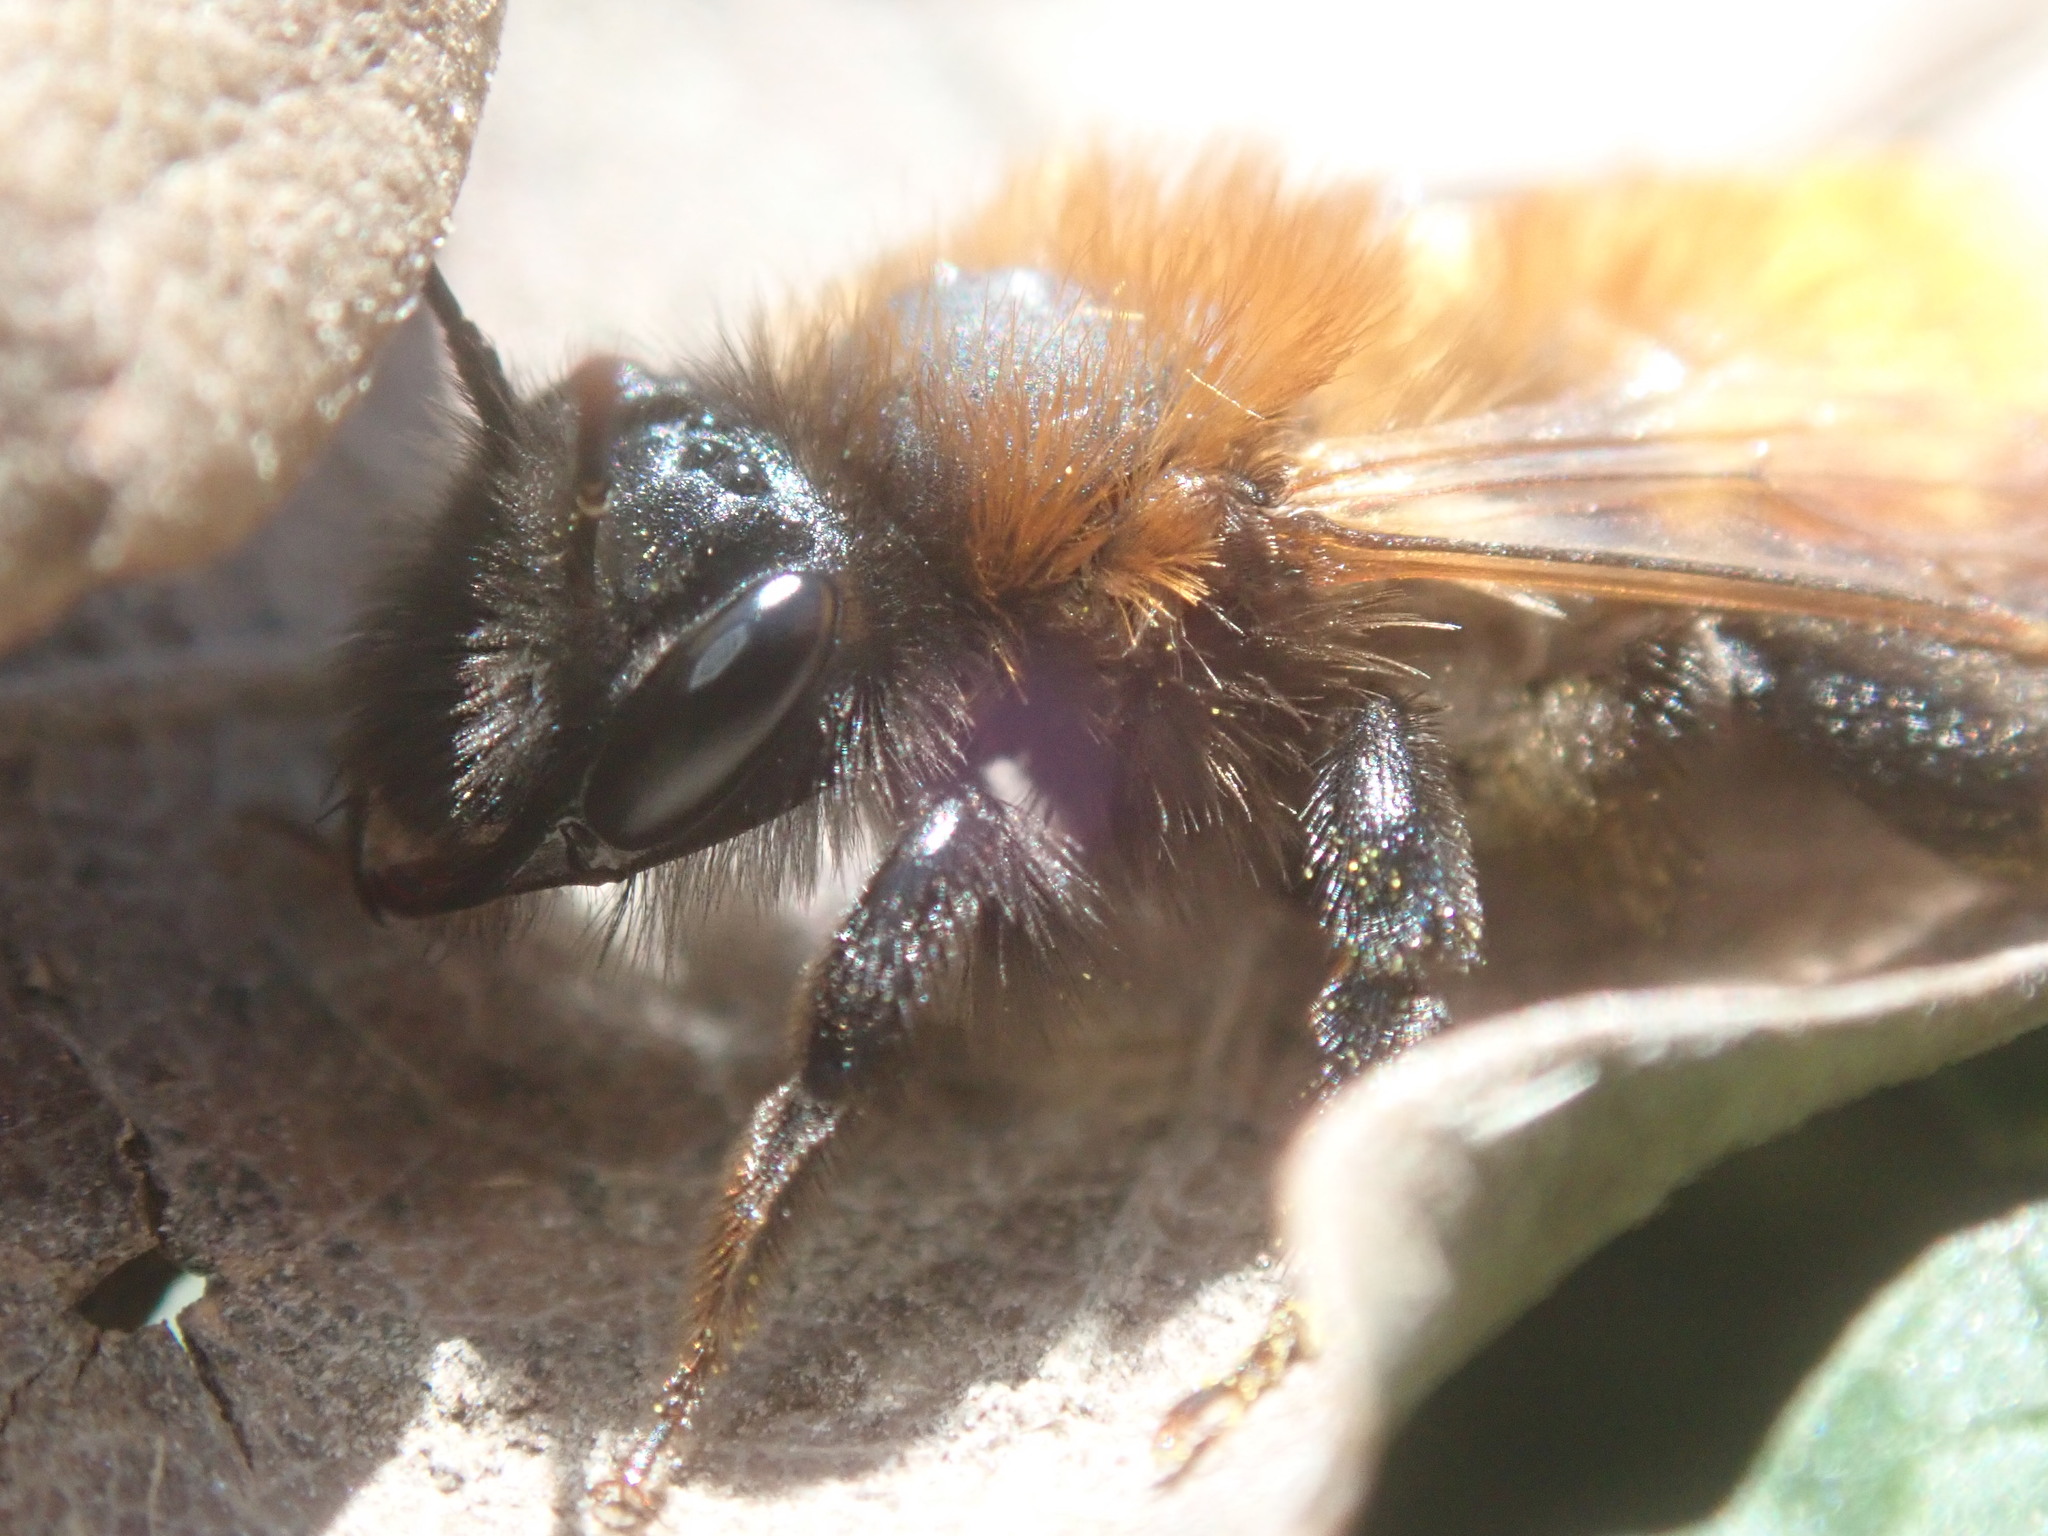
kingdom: Animalia
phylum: Arthropoda
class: Insecta
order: Hymenoptera
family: Andrenidae
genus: Andrena
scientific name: Andrena fulva
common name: Tawny mining bee
